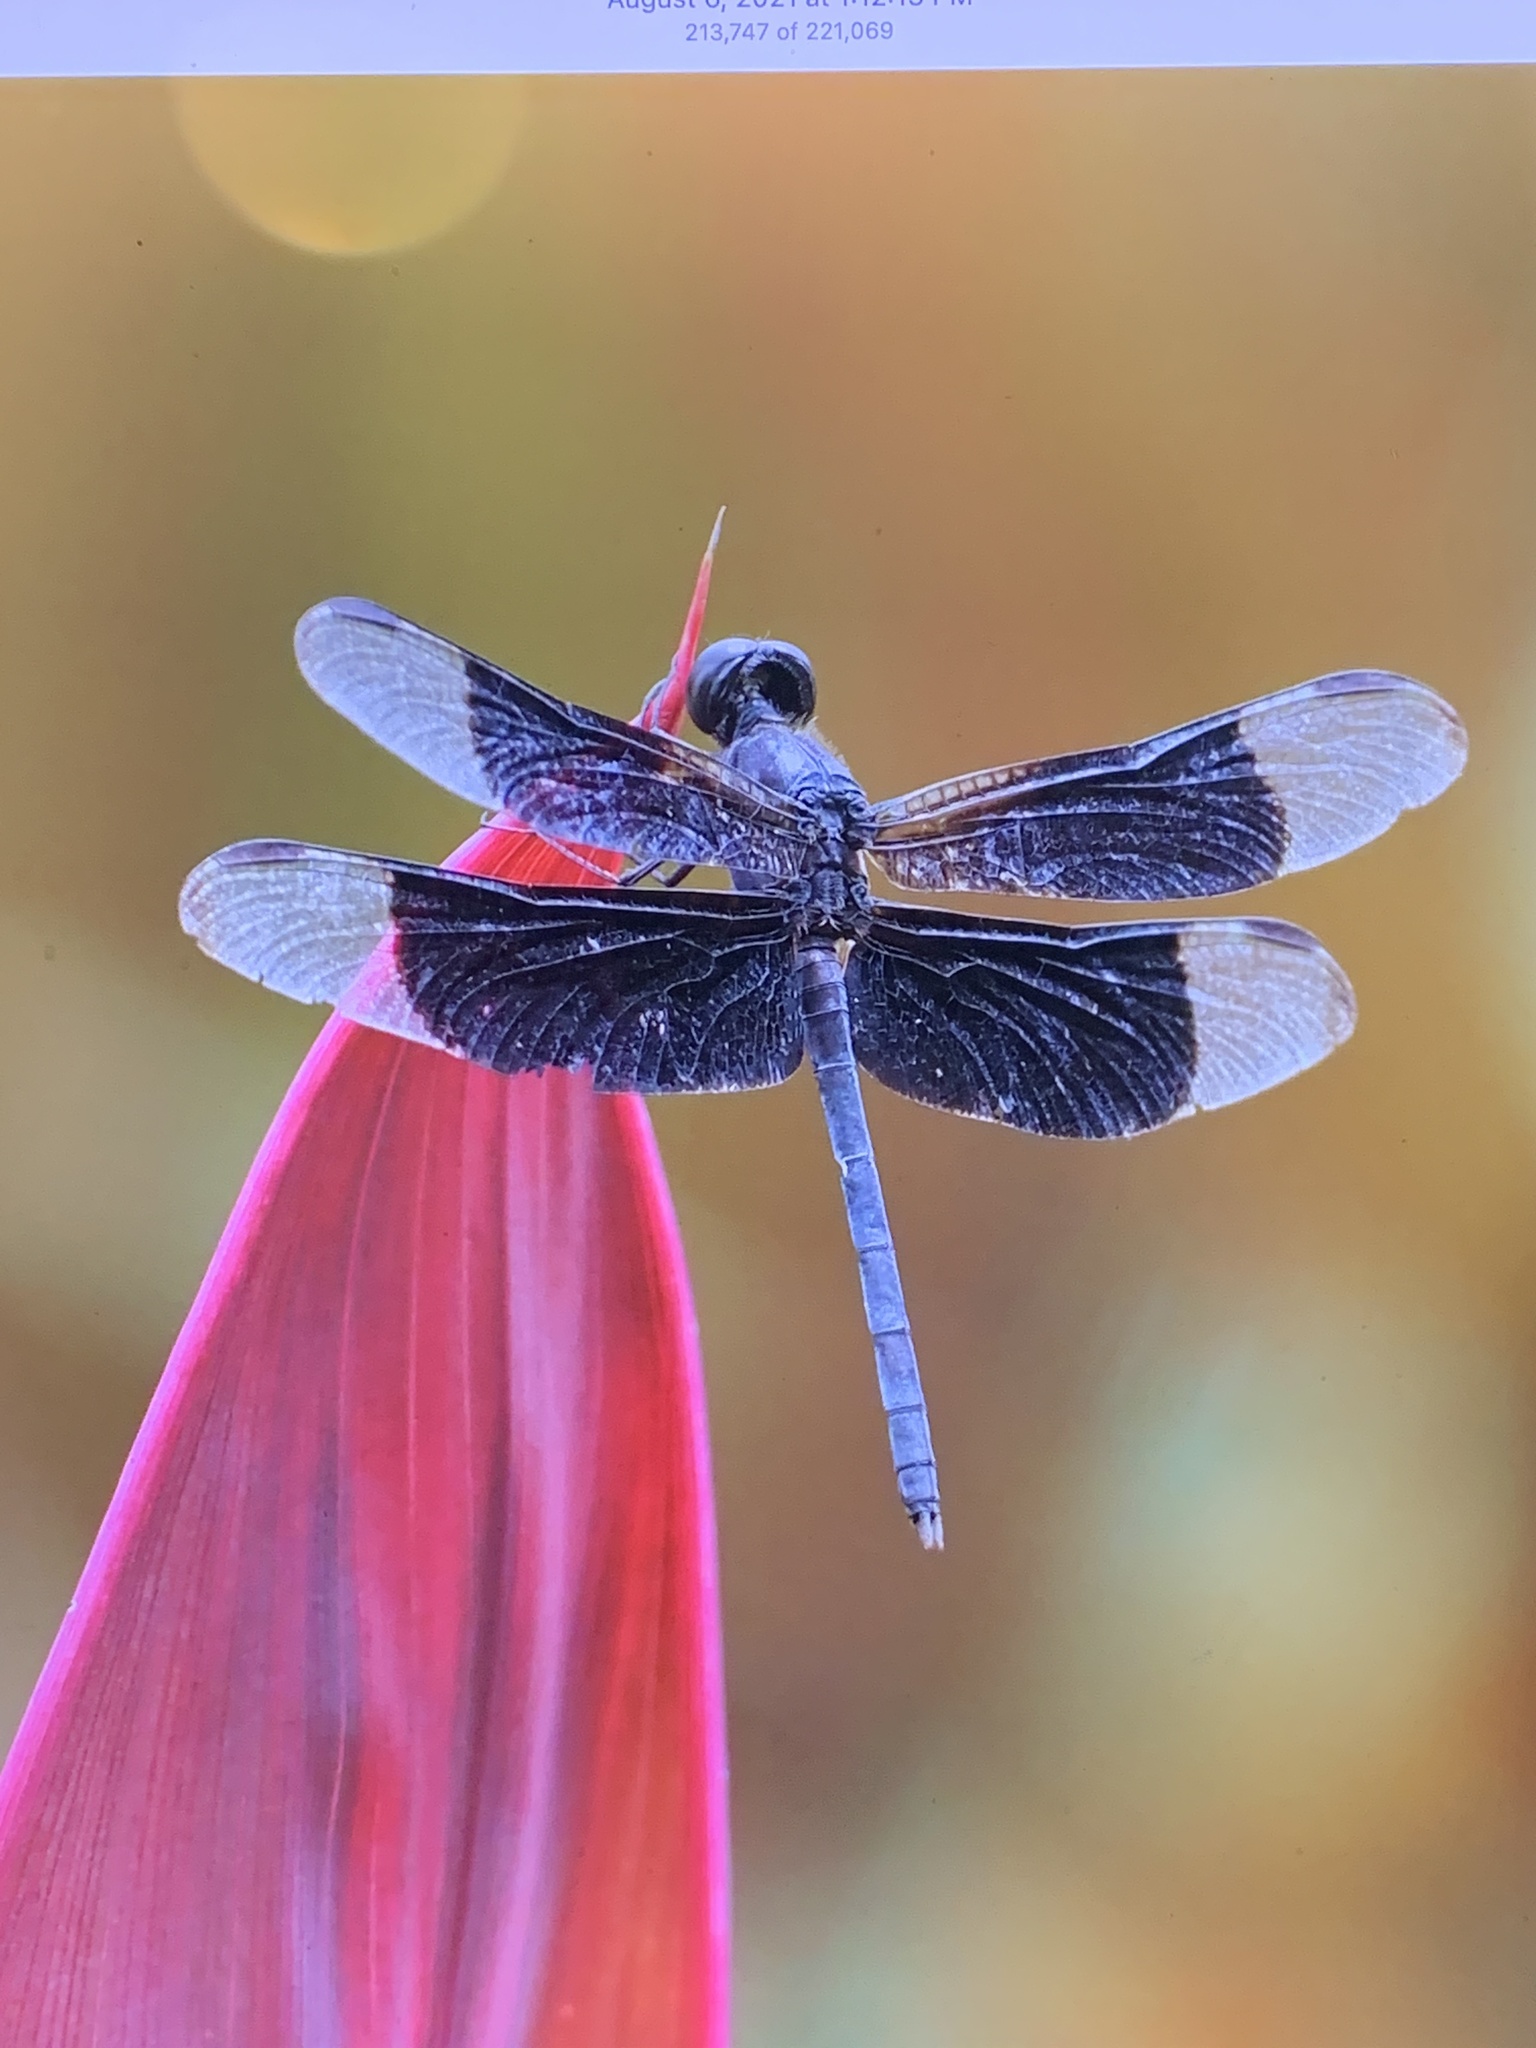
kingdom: Animalia
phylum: Arthropoda
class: Insecta
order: Odonata
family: Libellulidae
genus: Erythrodiplax
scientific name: Erythrodiplax funerea
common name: Black-winged dragonlet
